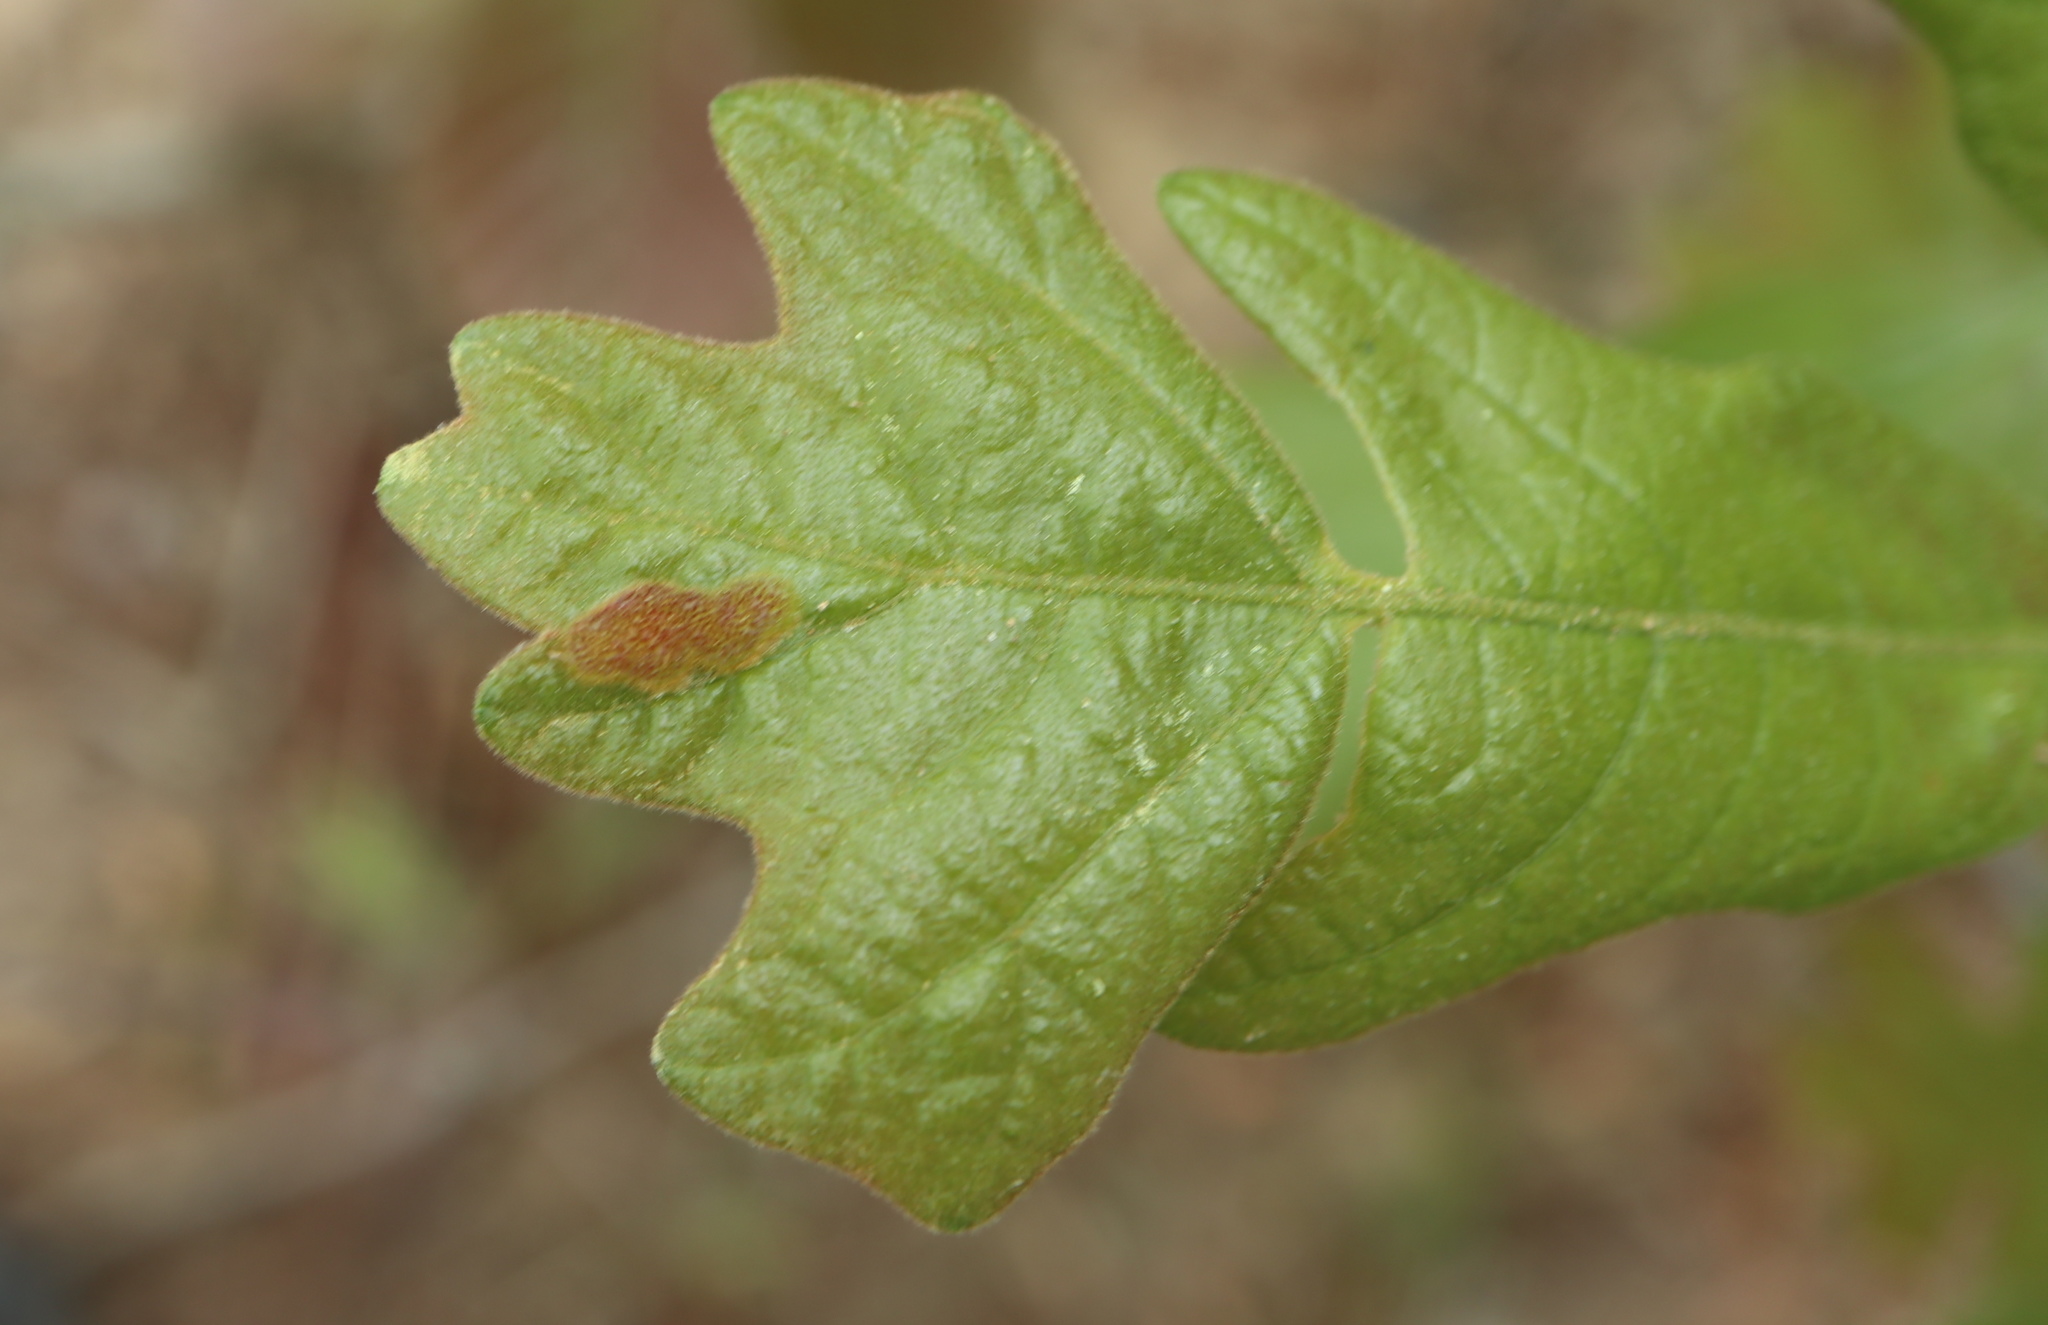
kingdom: Animalia
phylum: Arthropoda
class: Insecta
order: Hymenoptera
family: Cynipidae
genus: Neuroterus
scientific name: Neuroterus quercusirregularis
